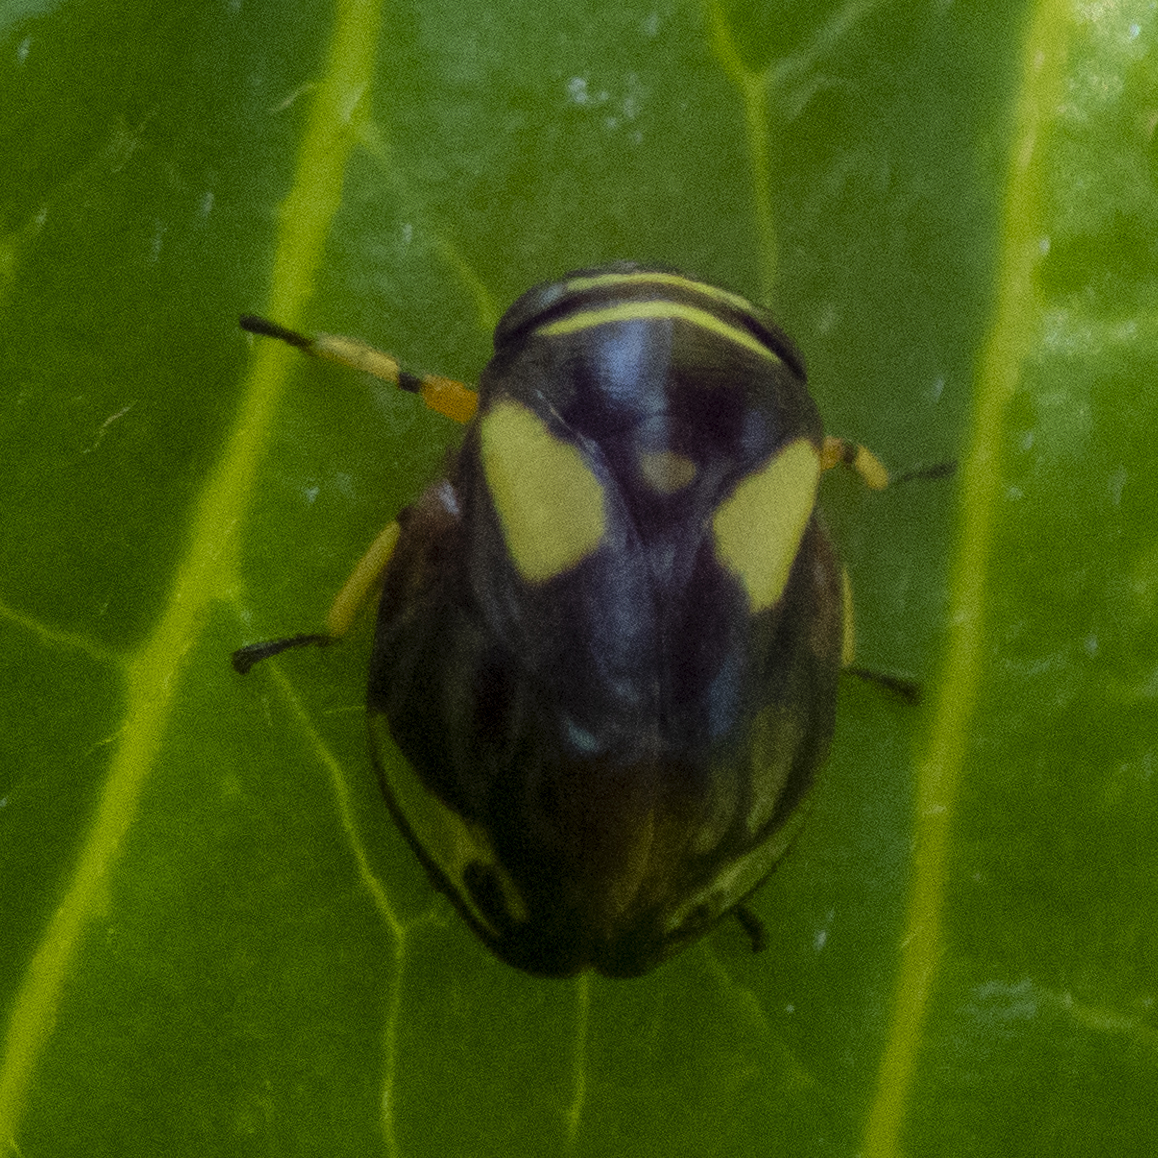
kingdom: Animalia
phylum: Arthropoda
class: Insecta
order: Hemiptera
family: Clastopteridae
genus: Clastoptera
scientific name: Clastoptera proteus
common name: Dogwood spittlebug
